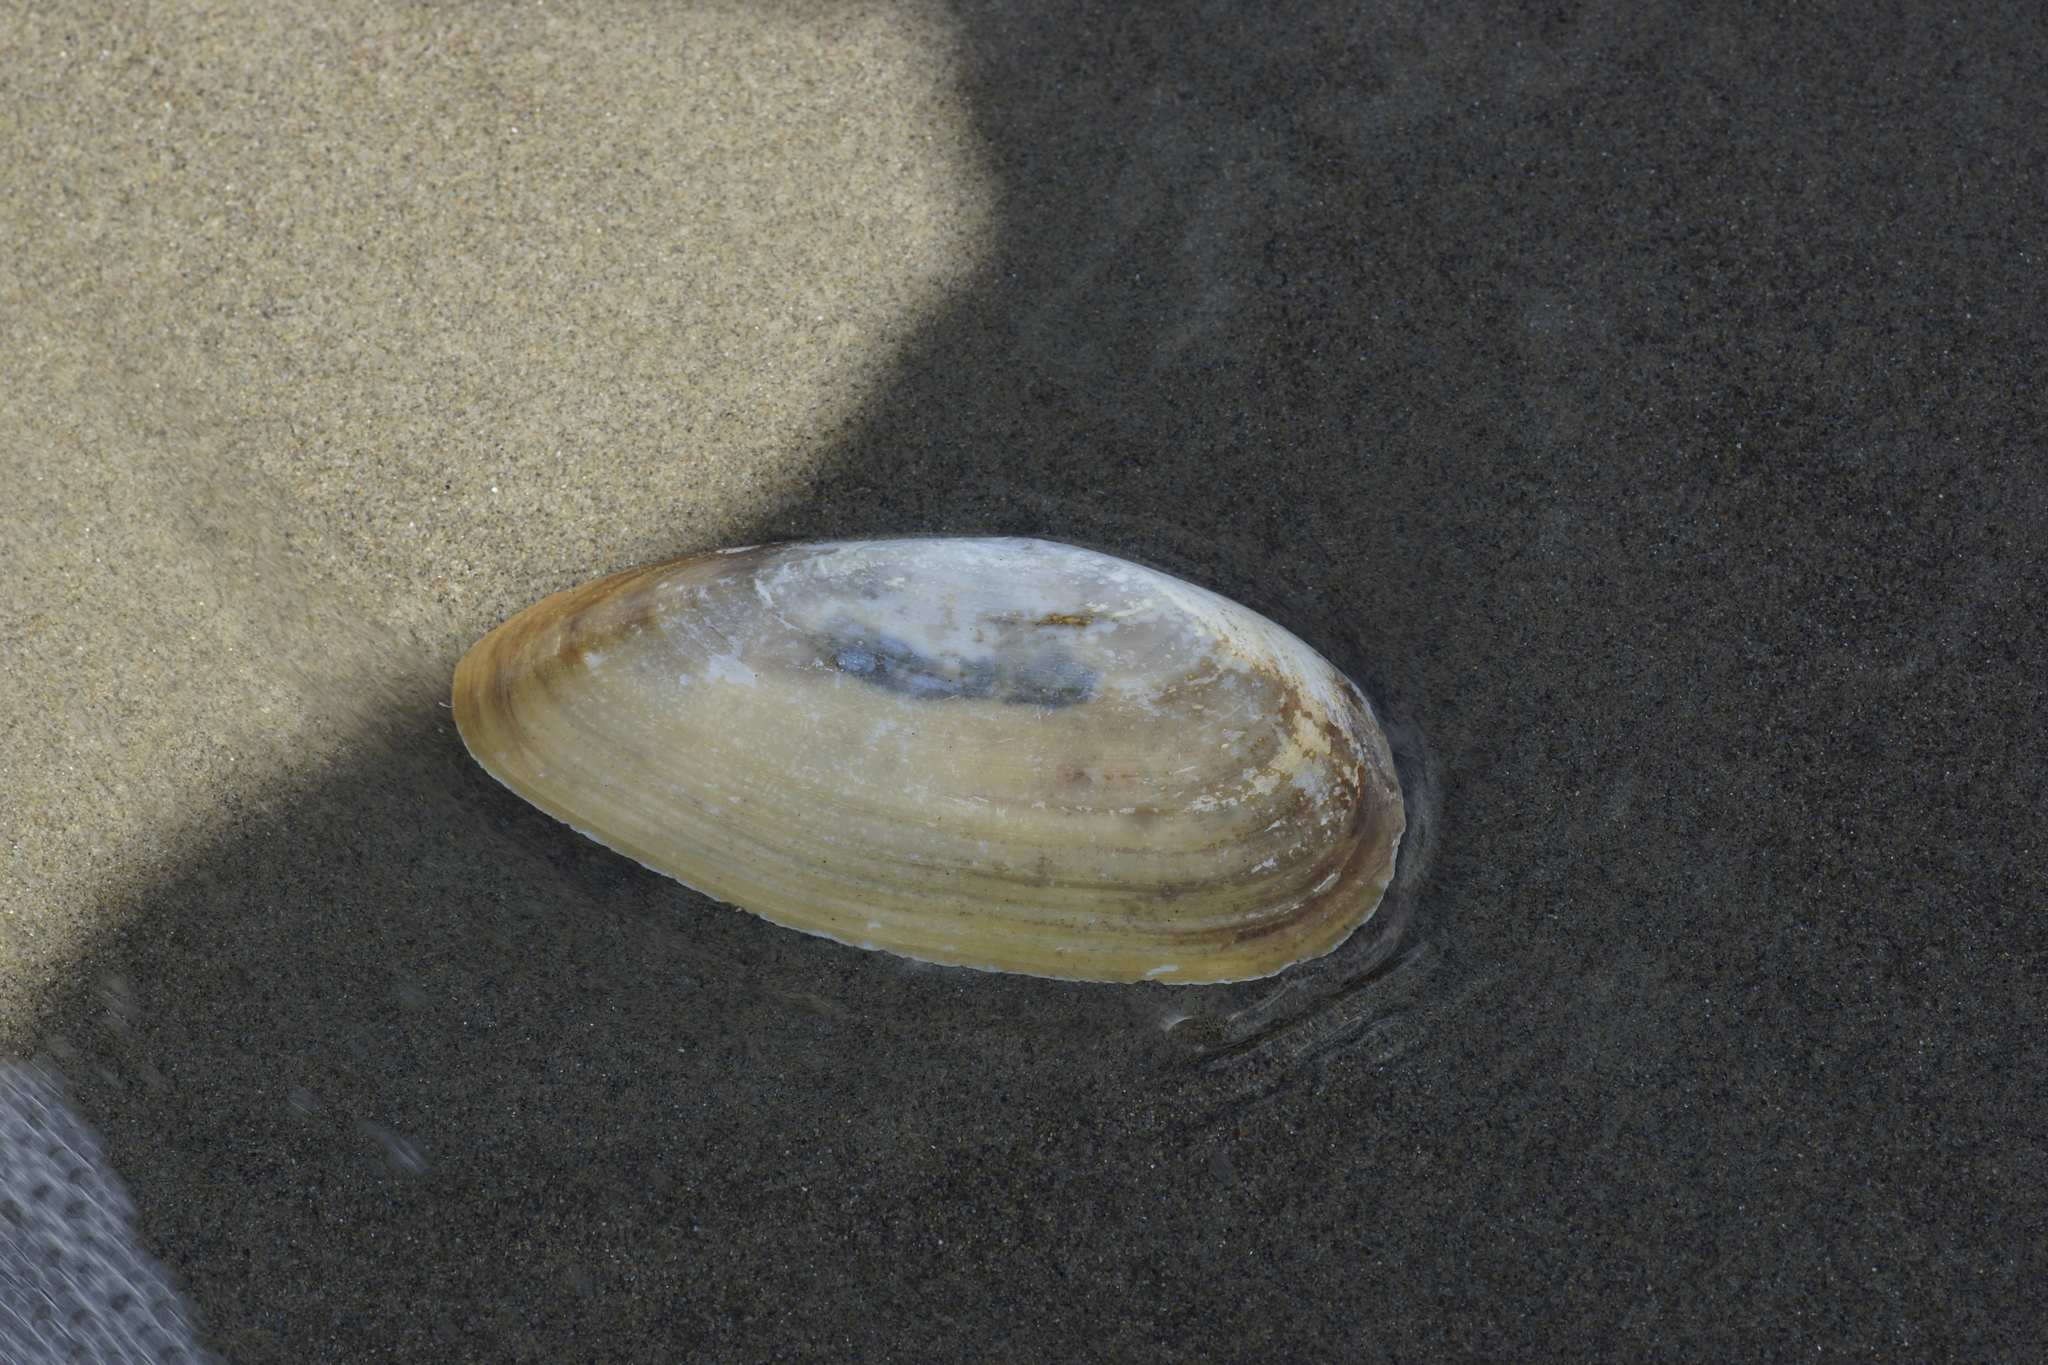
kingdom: Animalia
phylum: Mollusca
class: Bivalvia
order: Venerida
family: Mactridae
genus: Resania
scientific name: Resania lanceolata
